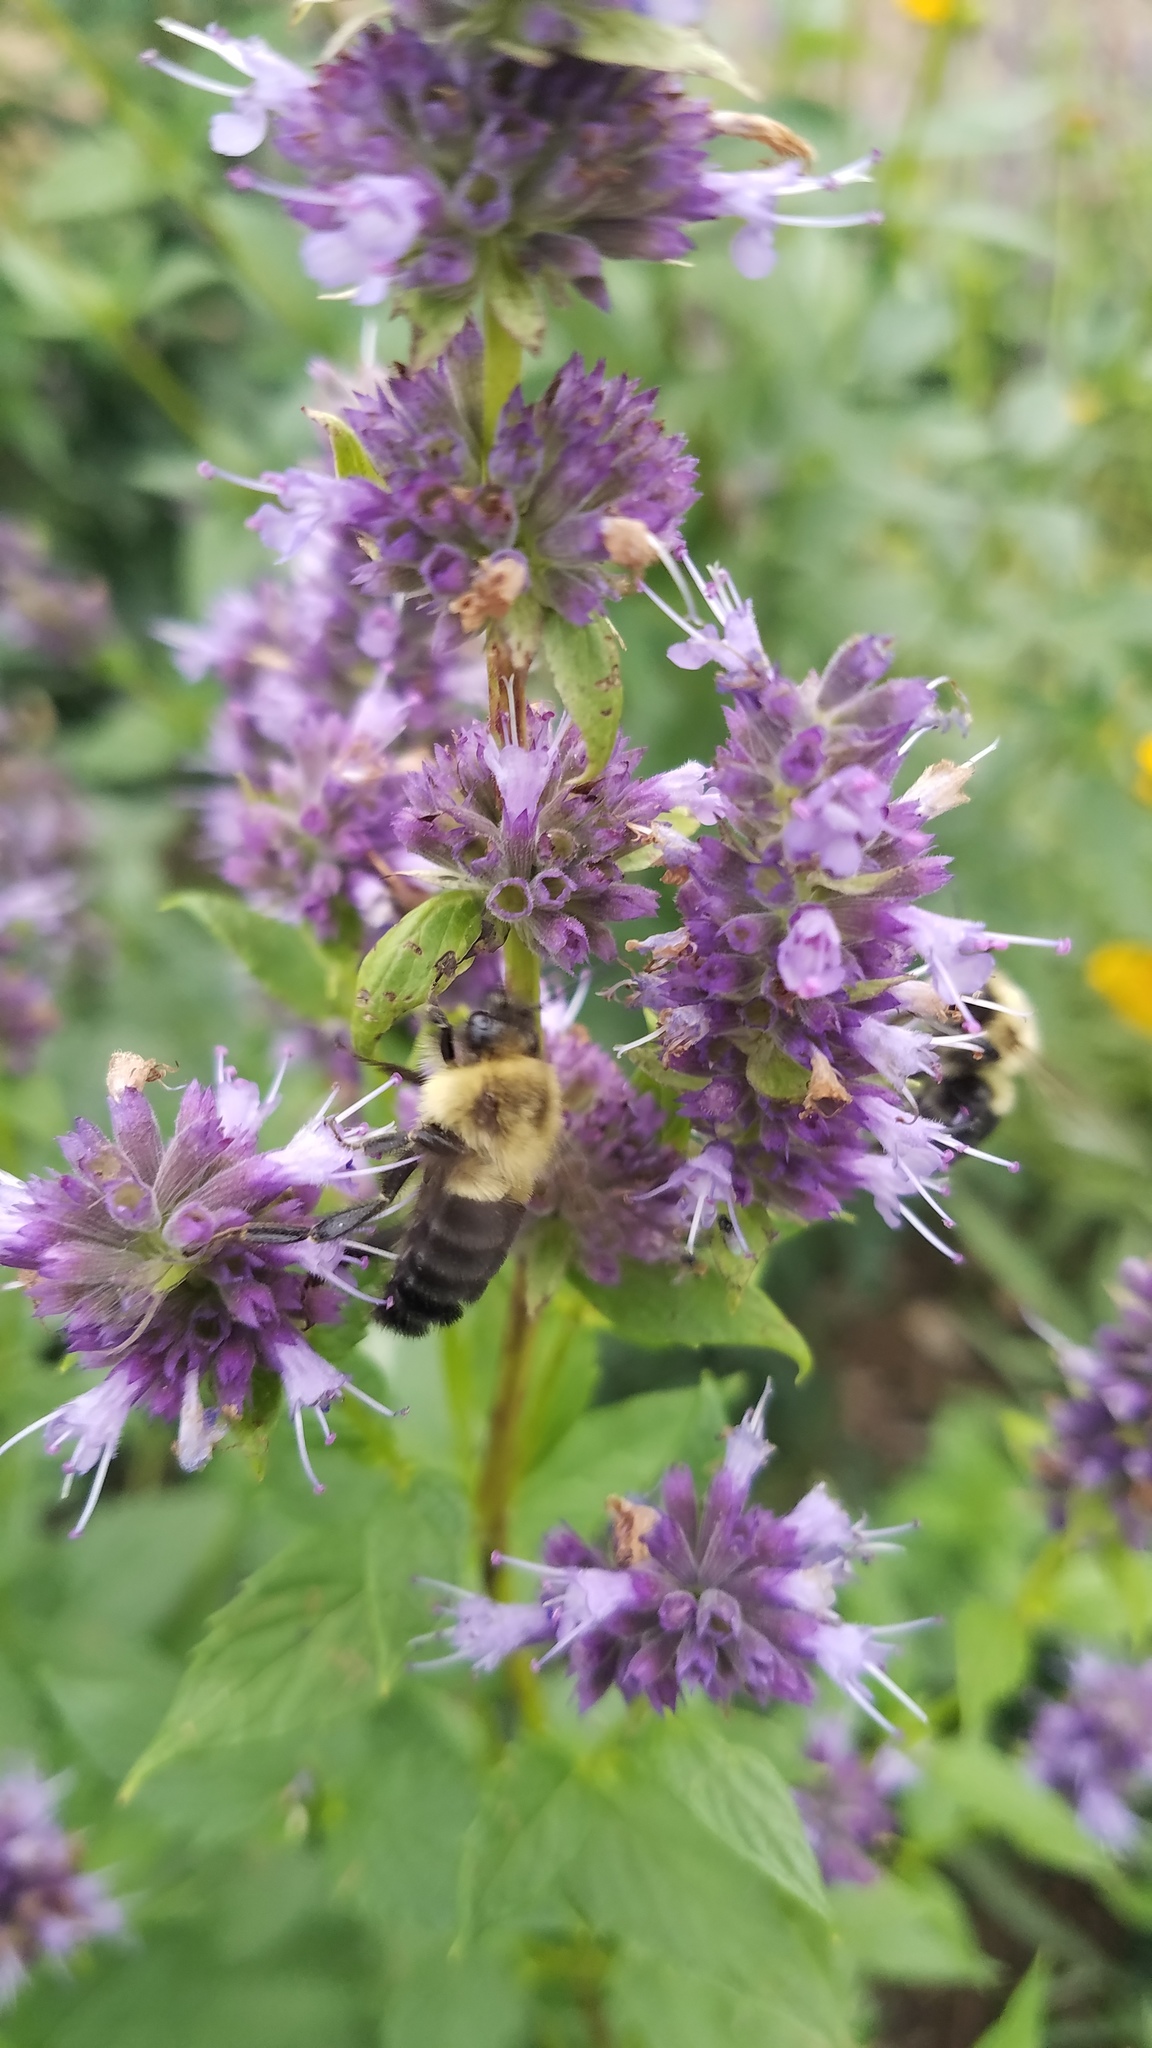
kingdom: Animalia
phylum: Arthropoda
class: Insecta
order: Hymenoptera
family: Apidae
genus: Bombus
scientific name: Bombus impatiens
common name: Common eastern bumble bee
